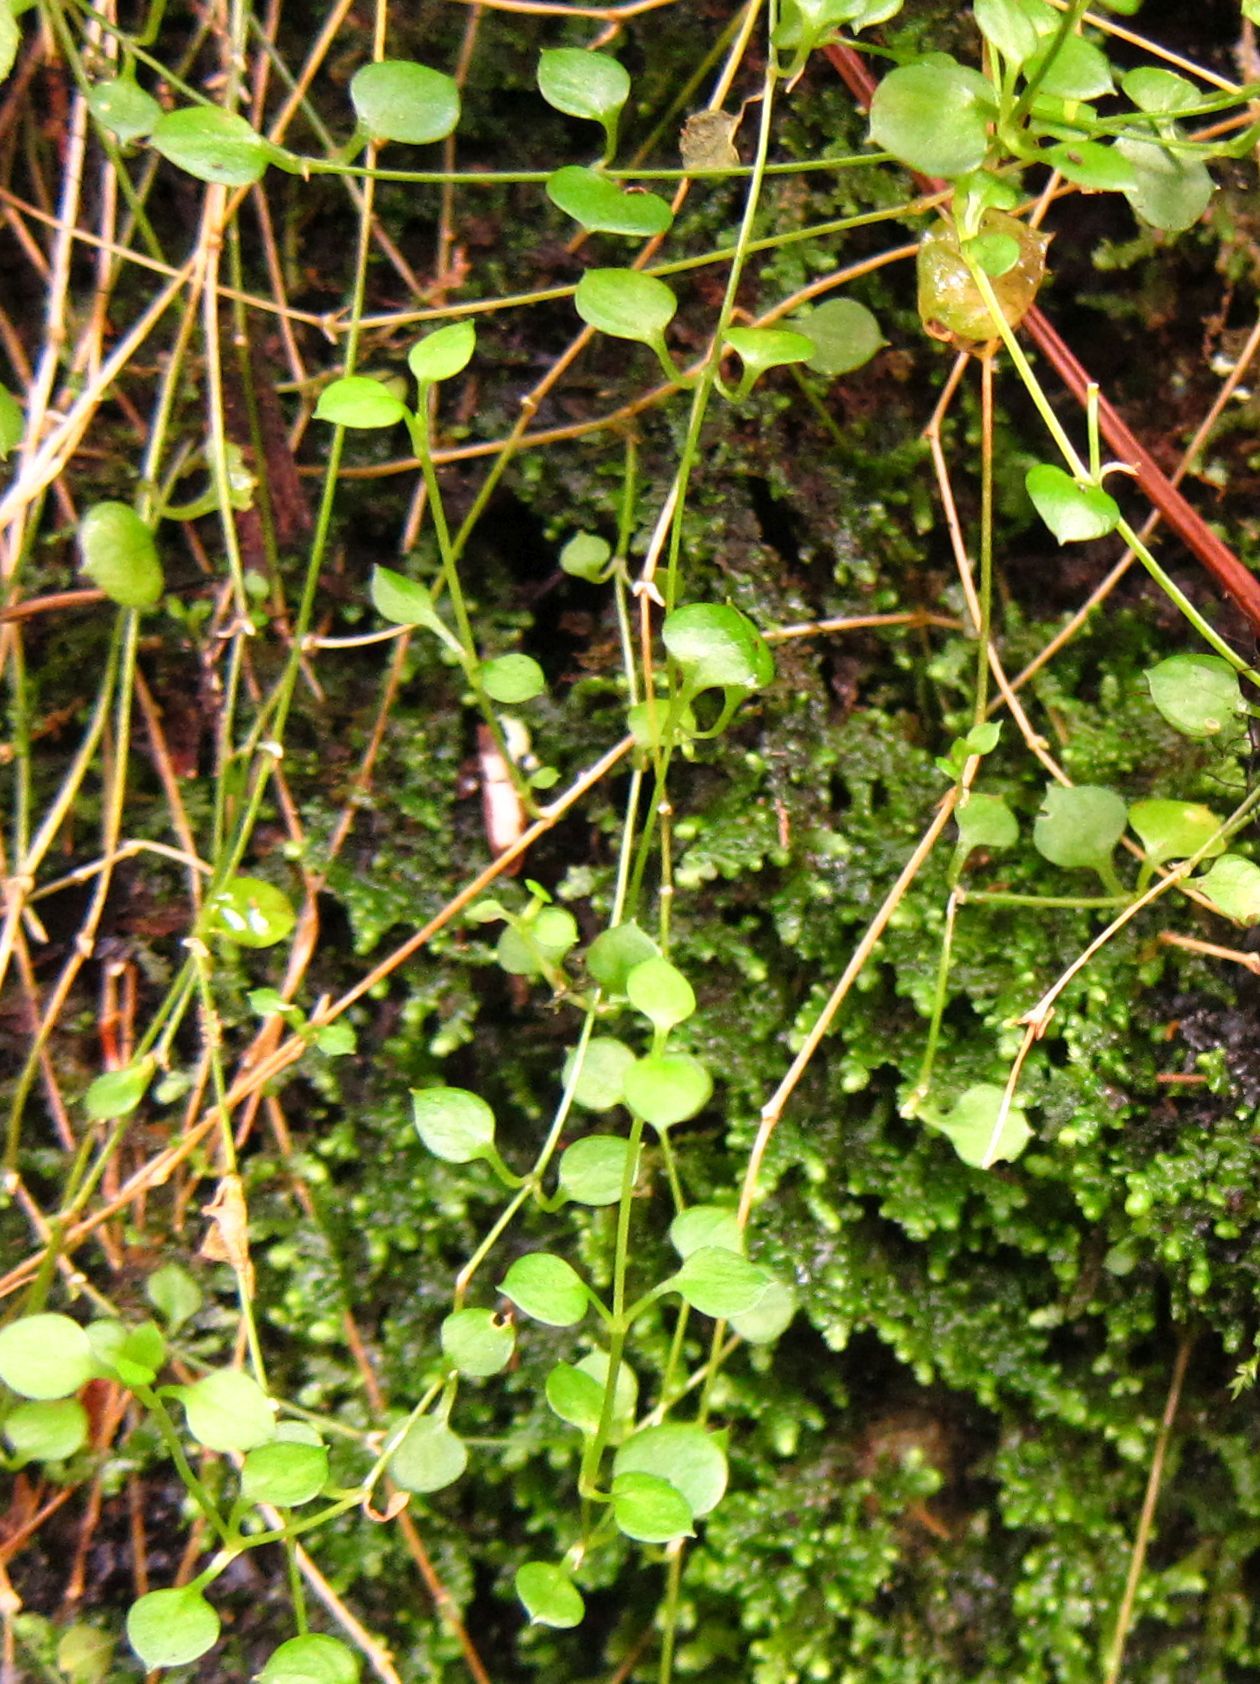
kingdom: Plantae
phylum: Tracheophyta
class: Magnoliopsida
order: Caryophyllales
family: Caryophyllaceae
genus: Stellaria
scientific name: Stellaria parviflora
